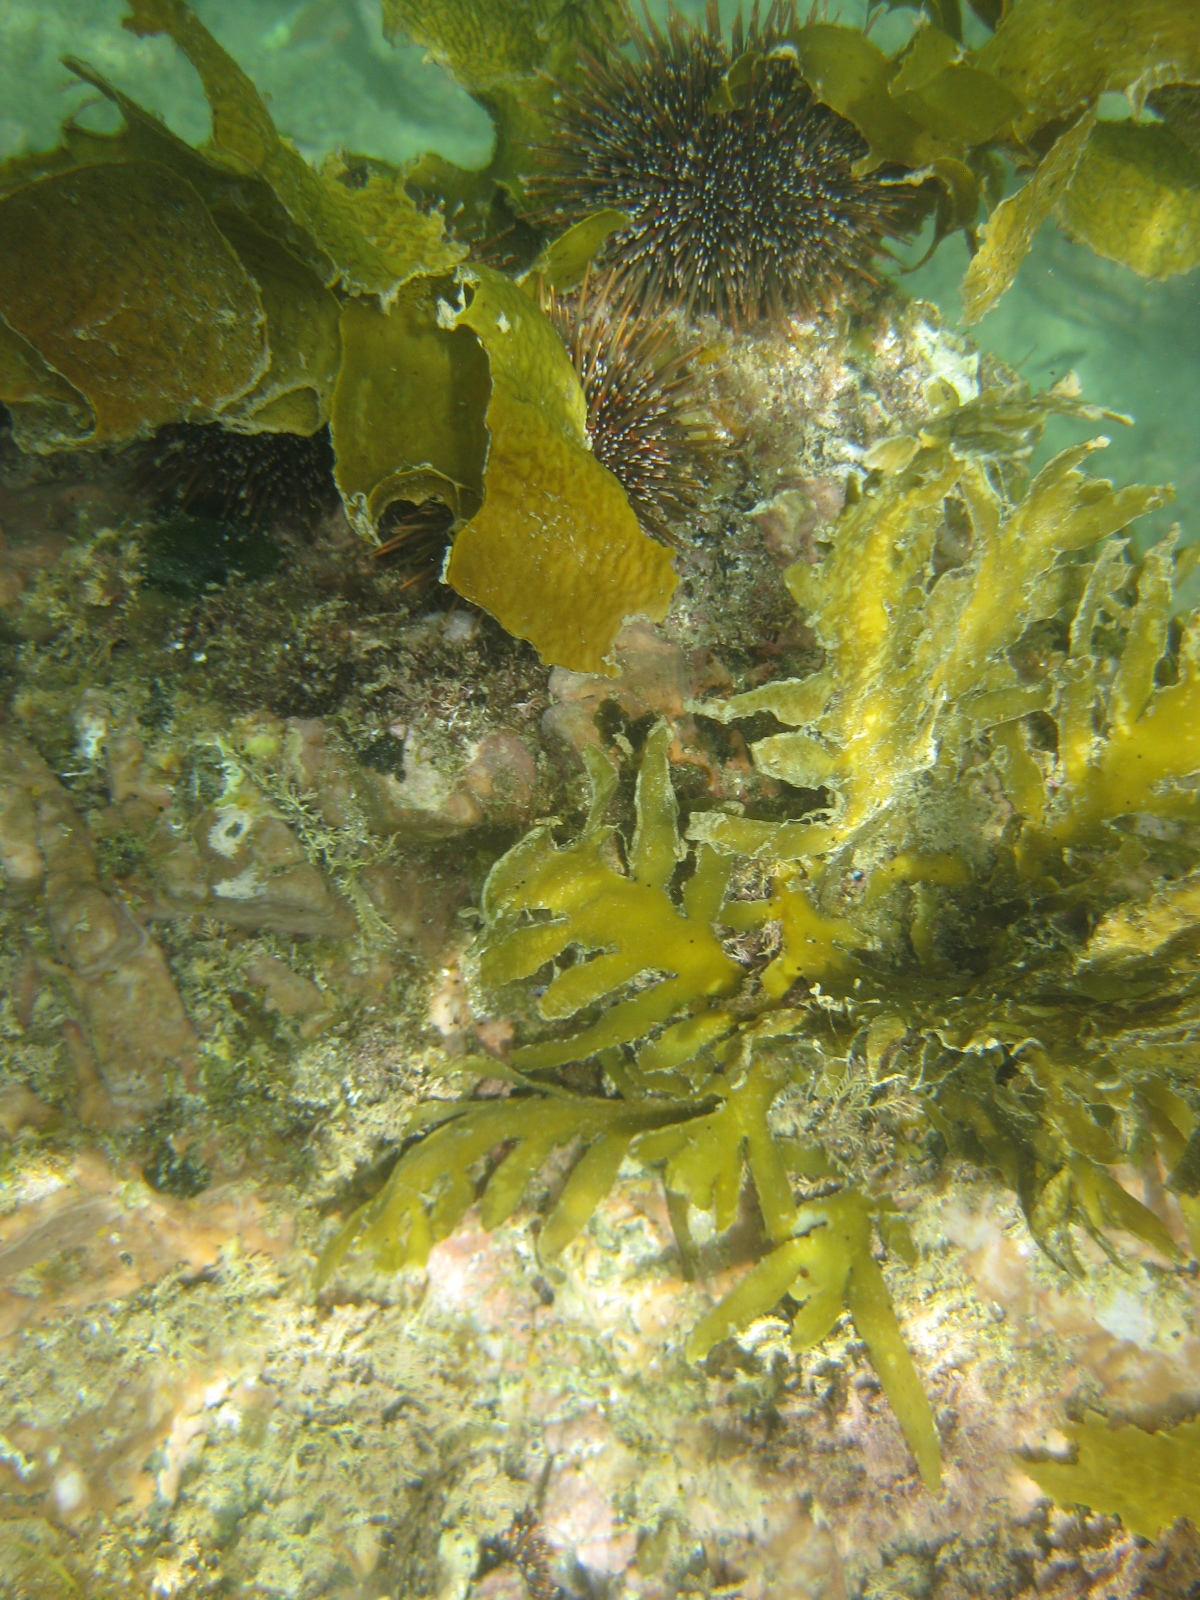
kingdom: Chromista
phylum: Ochrophyta
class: Phaeophyceae
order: Fucales
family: Sargassaceae
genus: Carpophyllum
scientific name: Carpophyllum maschalocarpum
